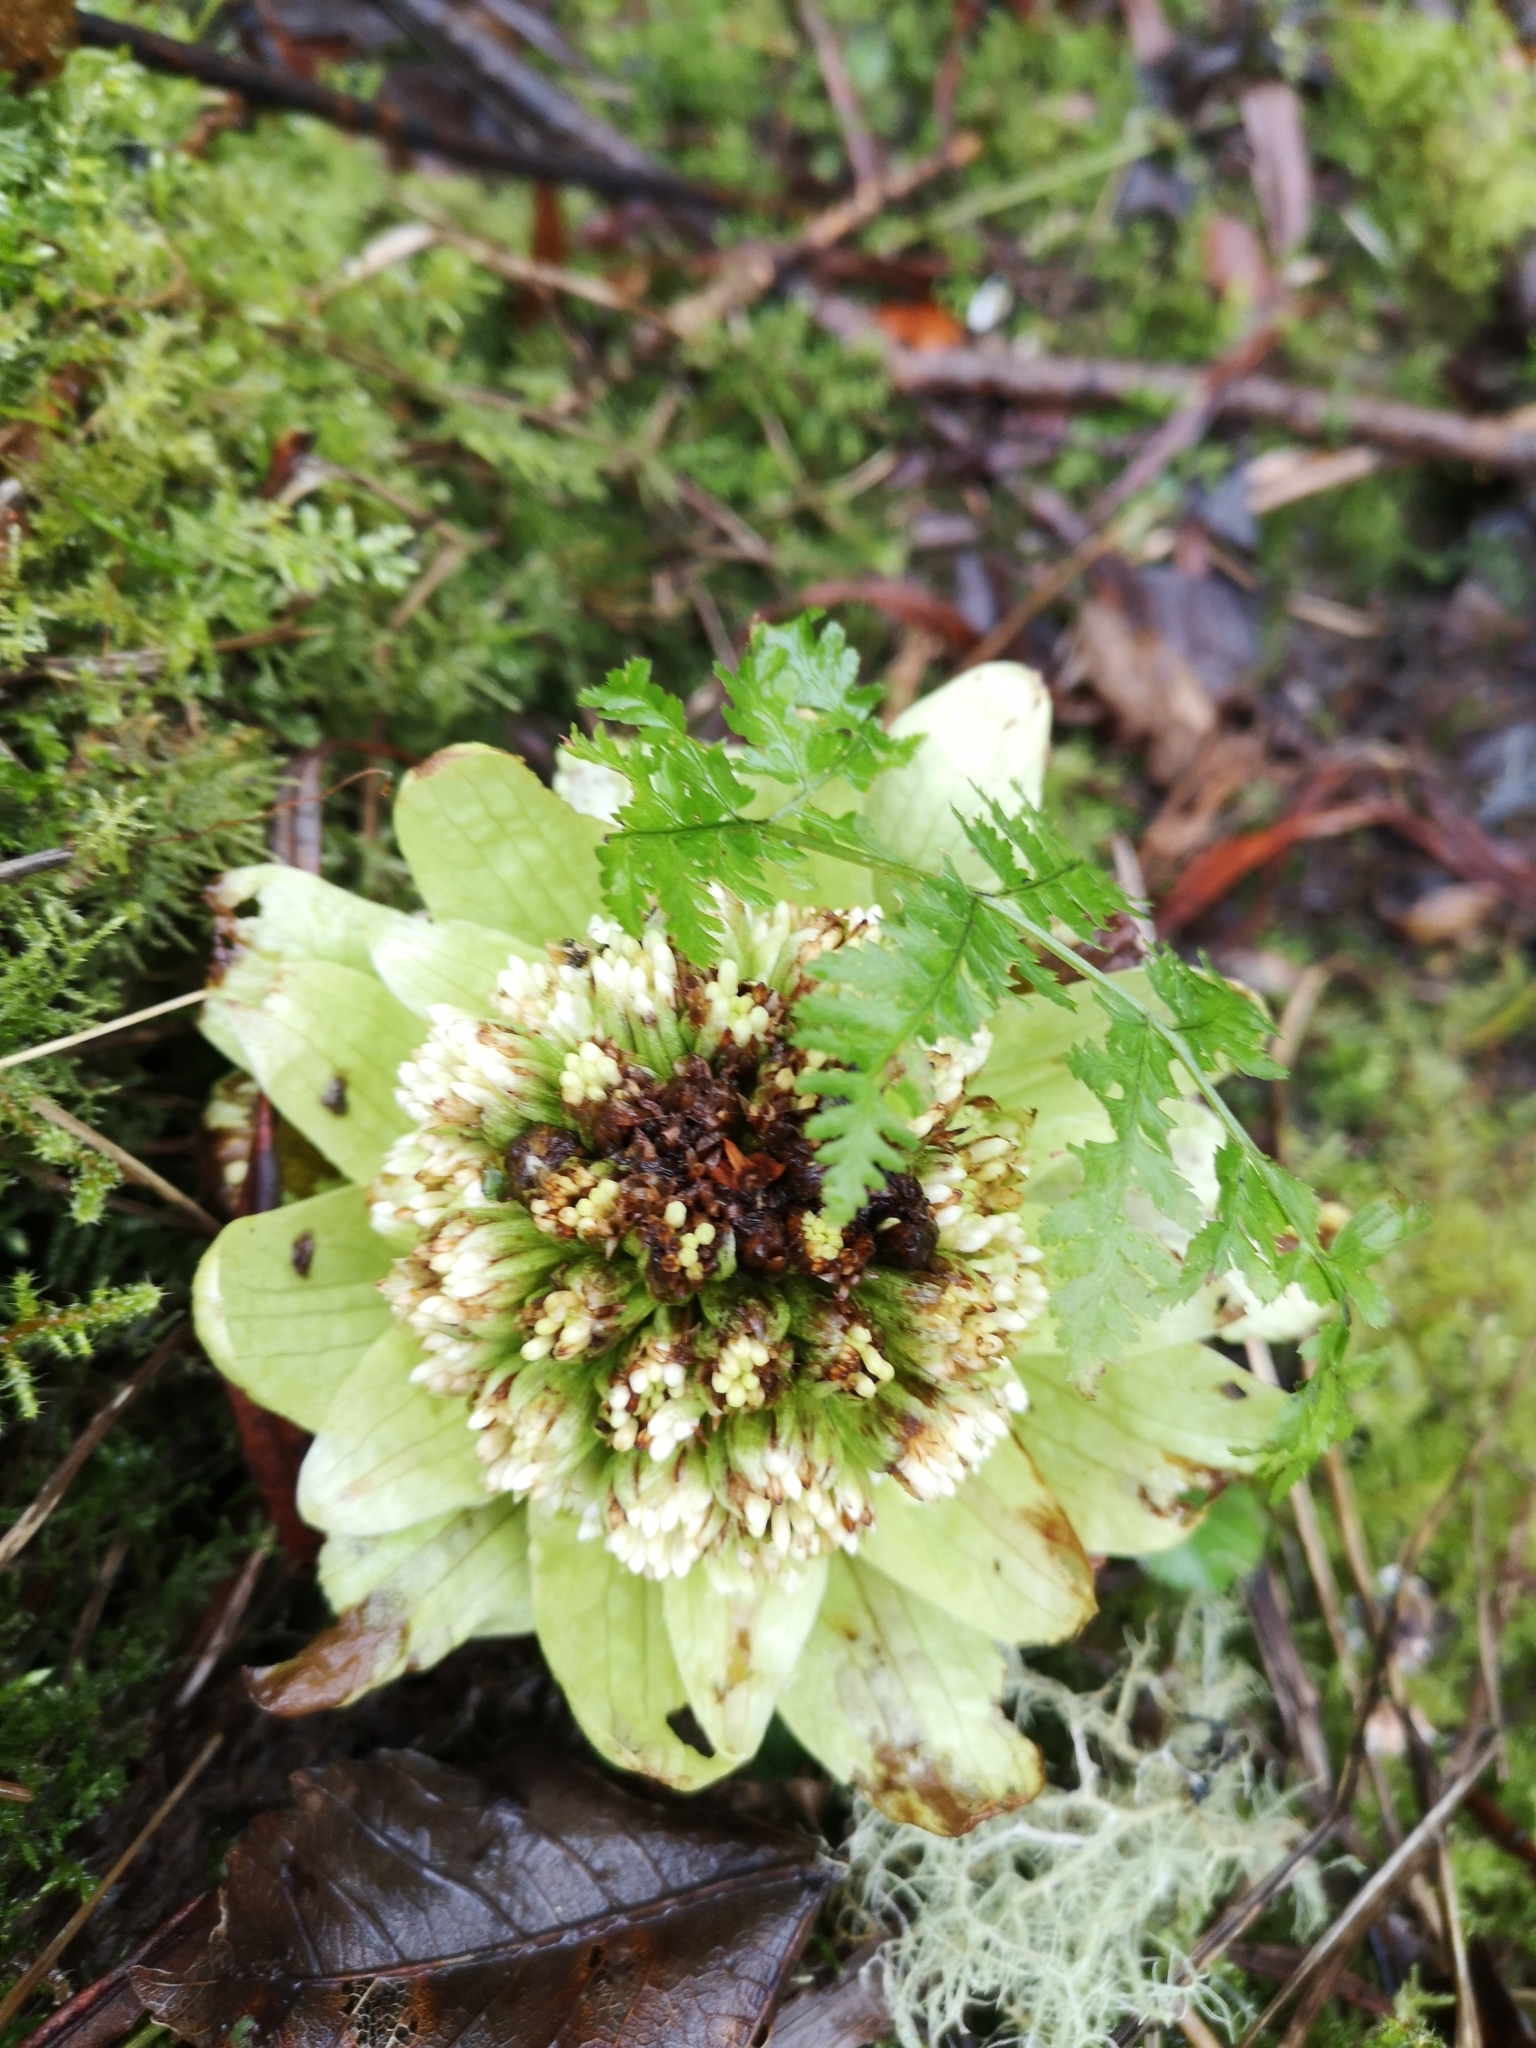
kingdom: Plantae
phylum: Tracheophyta
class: Magnoliopsida
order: Asterales
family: Asteraceae
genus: Petasites
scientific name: Petasites japonicus
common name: Giant butterbur
